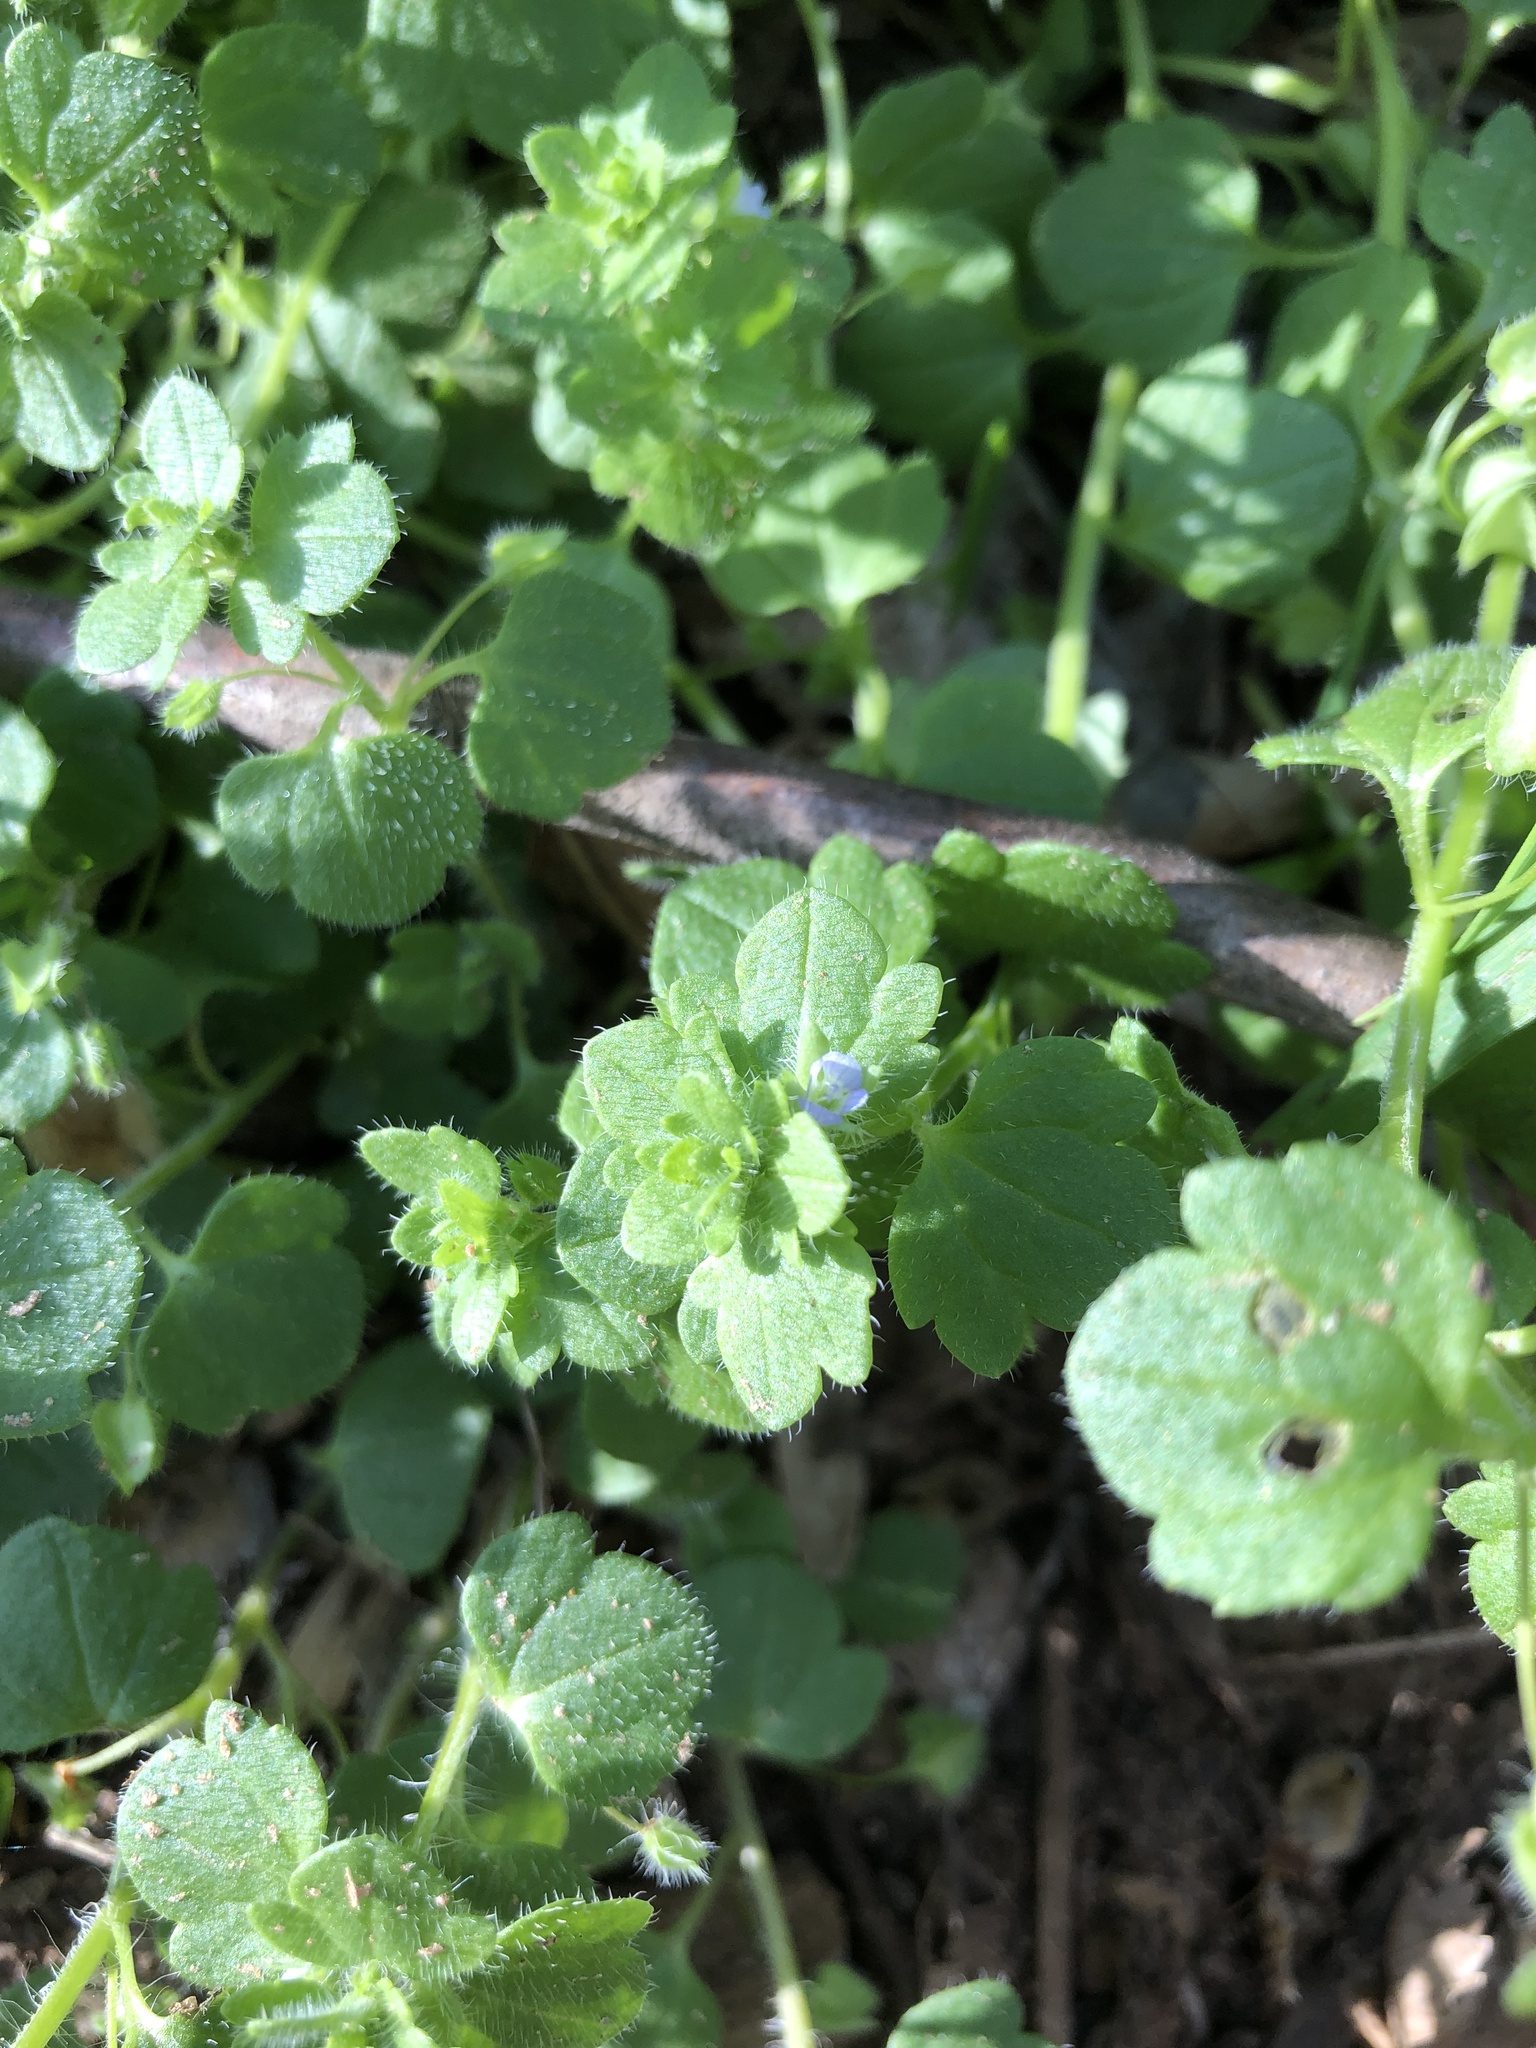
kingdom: Plantae
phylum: Tracheophyta
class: Magnoliopsida
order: Lamiales
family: Plantaginaceae
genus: Veronica
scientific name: Veronica hederifolia
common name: Ivy-leaved speedwell
